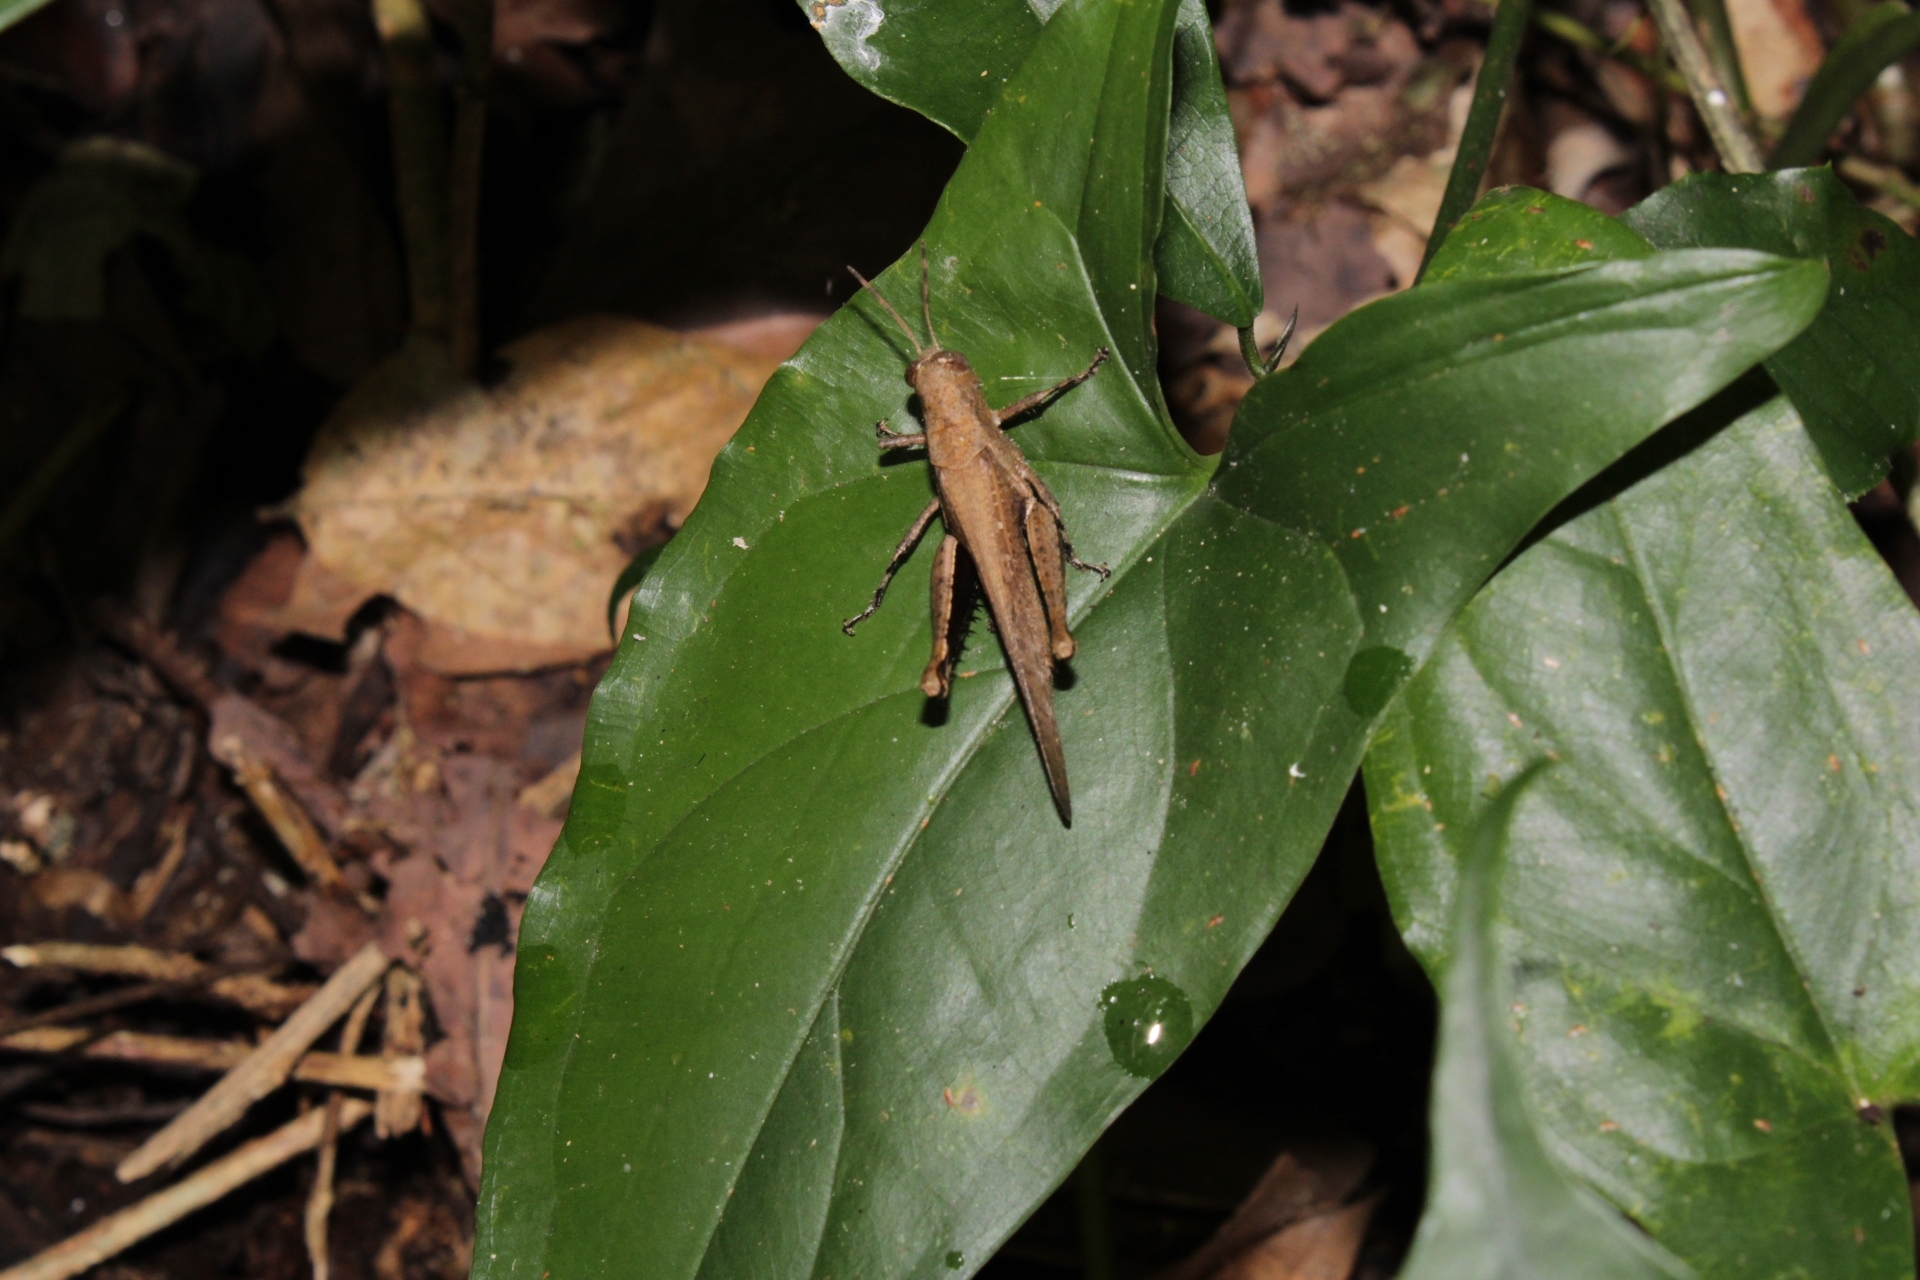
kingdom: Animalia
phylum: Arthropoda
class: Insecta
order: Orthoptera
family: Acrididae
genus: Abracris
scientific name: Abracris flavolineata
